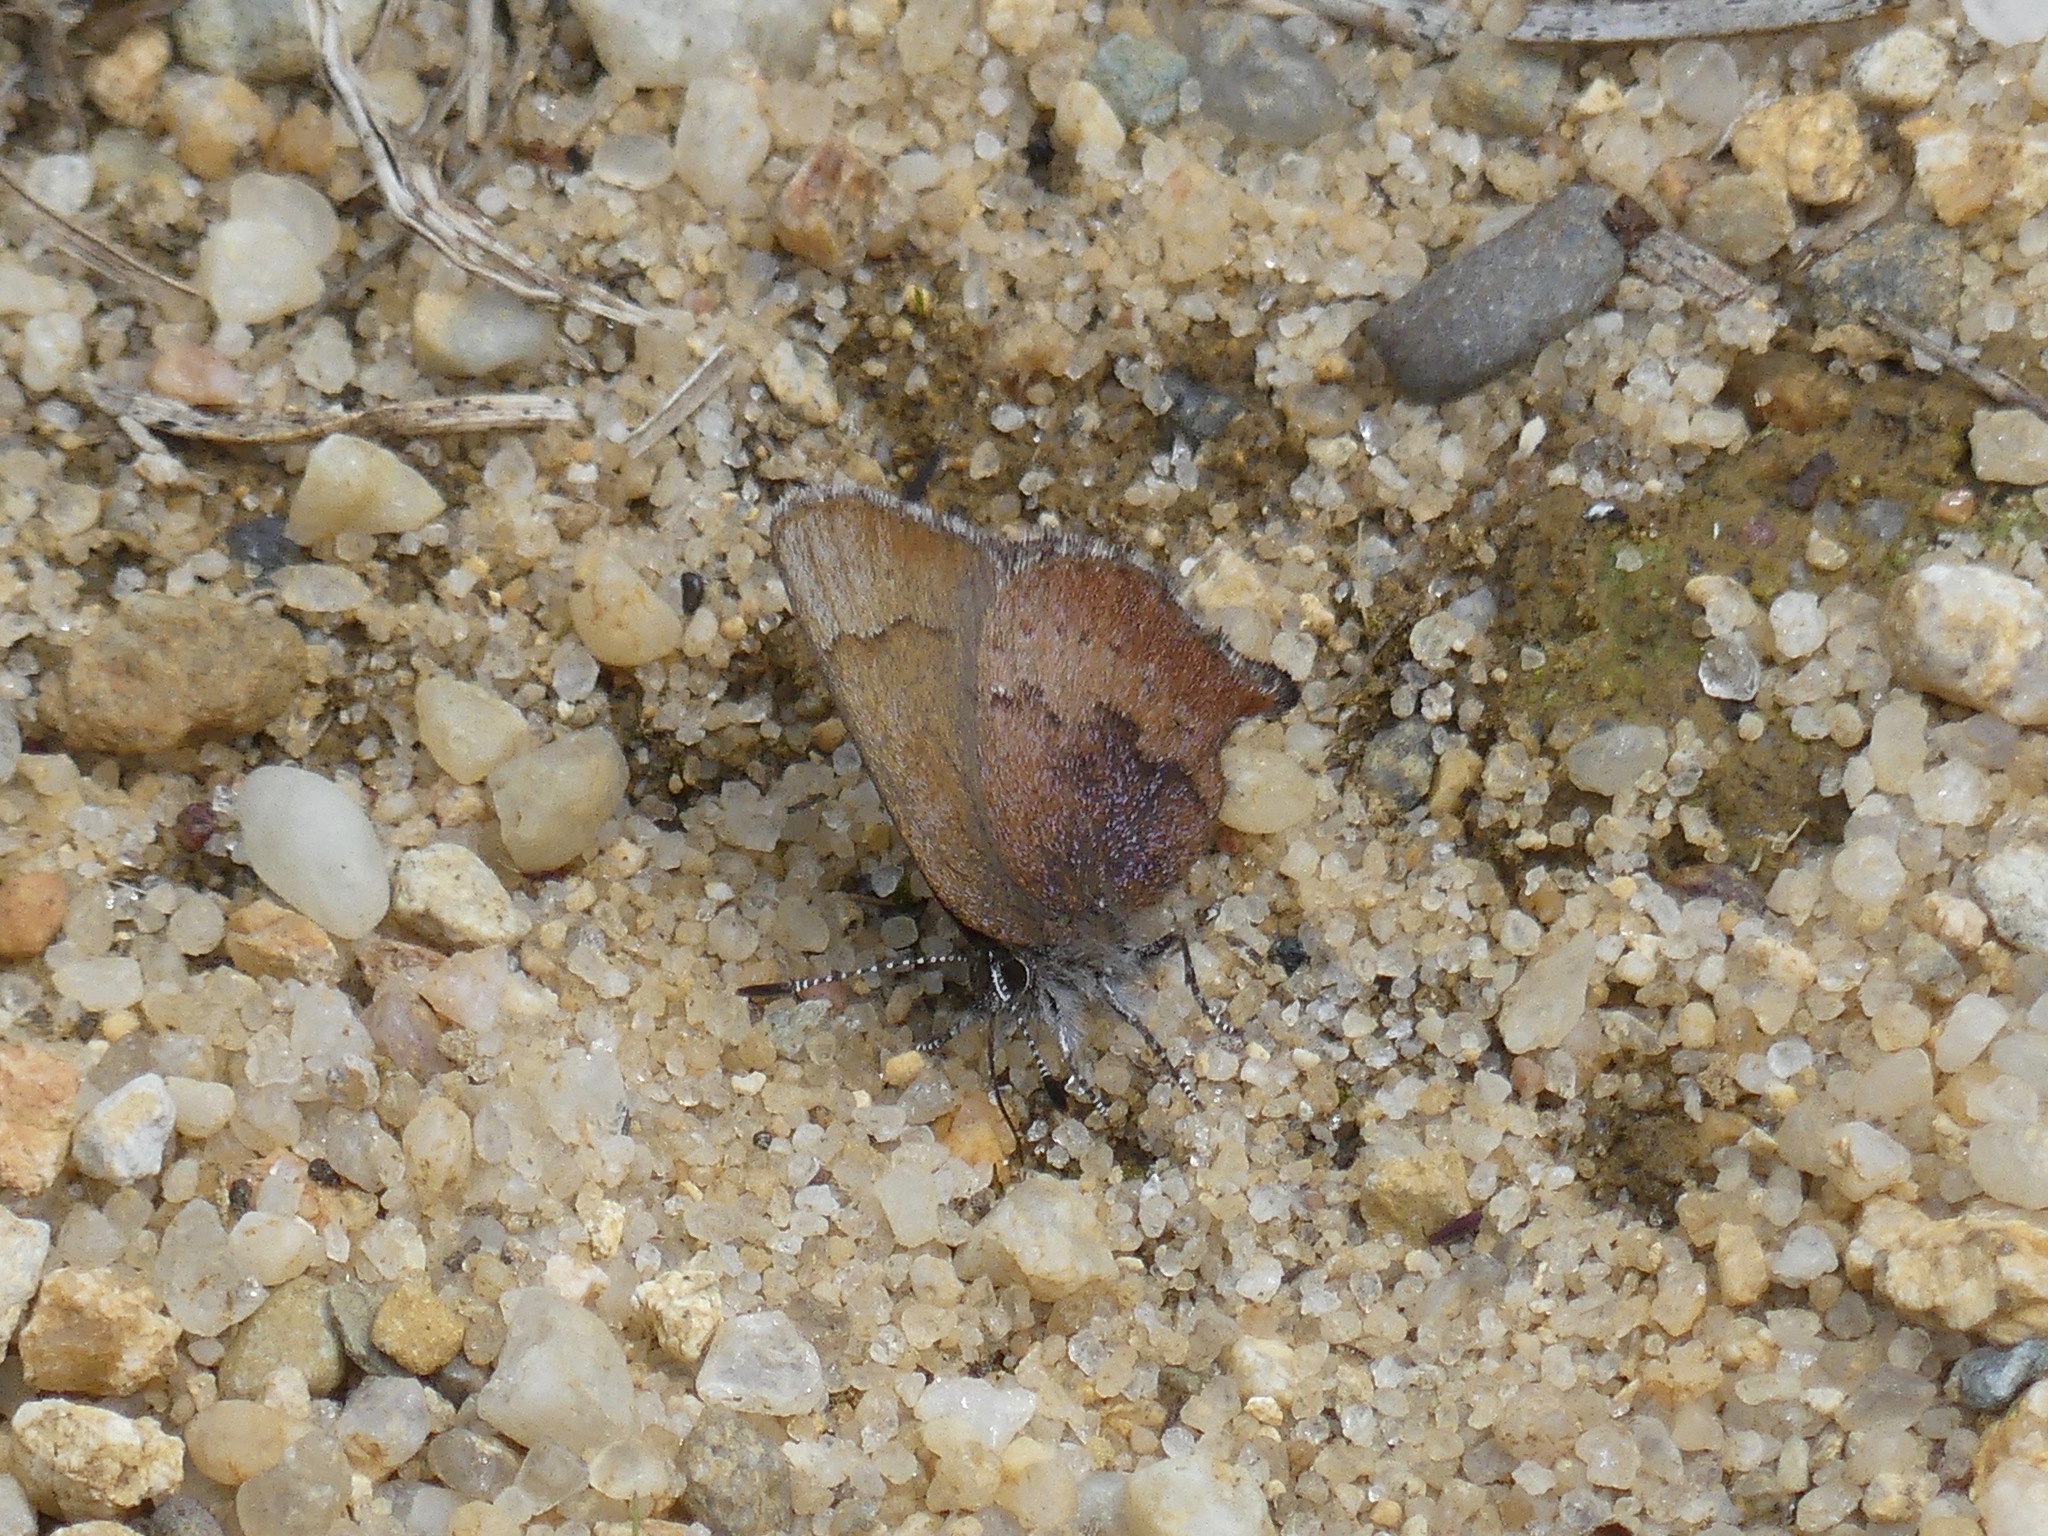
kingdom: Animalia
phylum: Arthropoda
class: Insecta
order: Lepidoptera
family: Lycaenidae
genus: Incisalia
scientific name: Incisalia irioides
